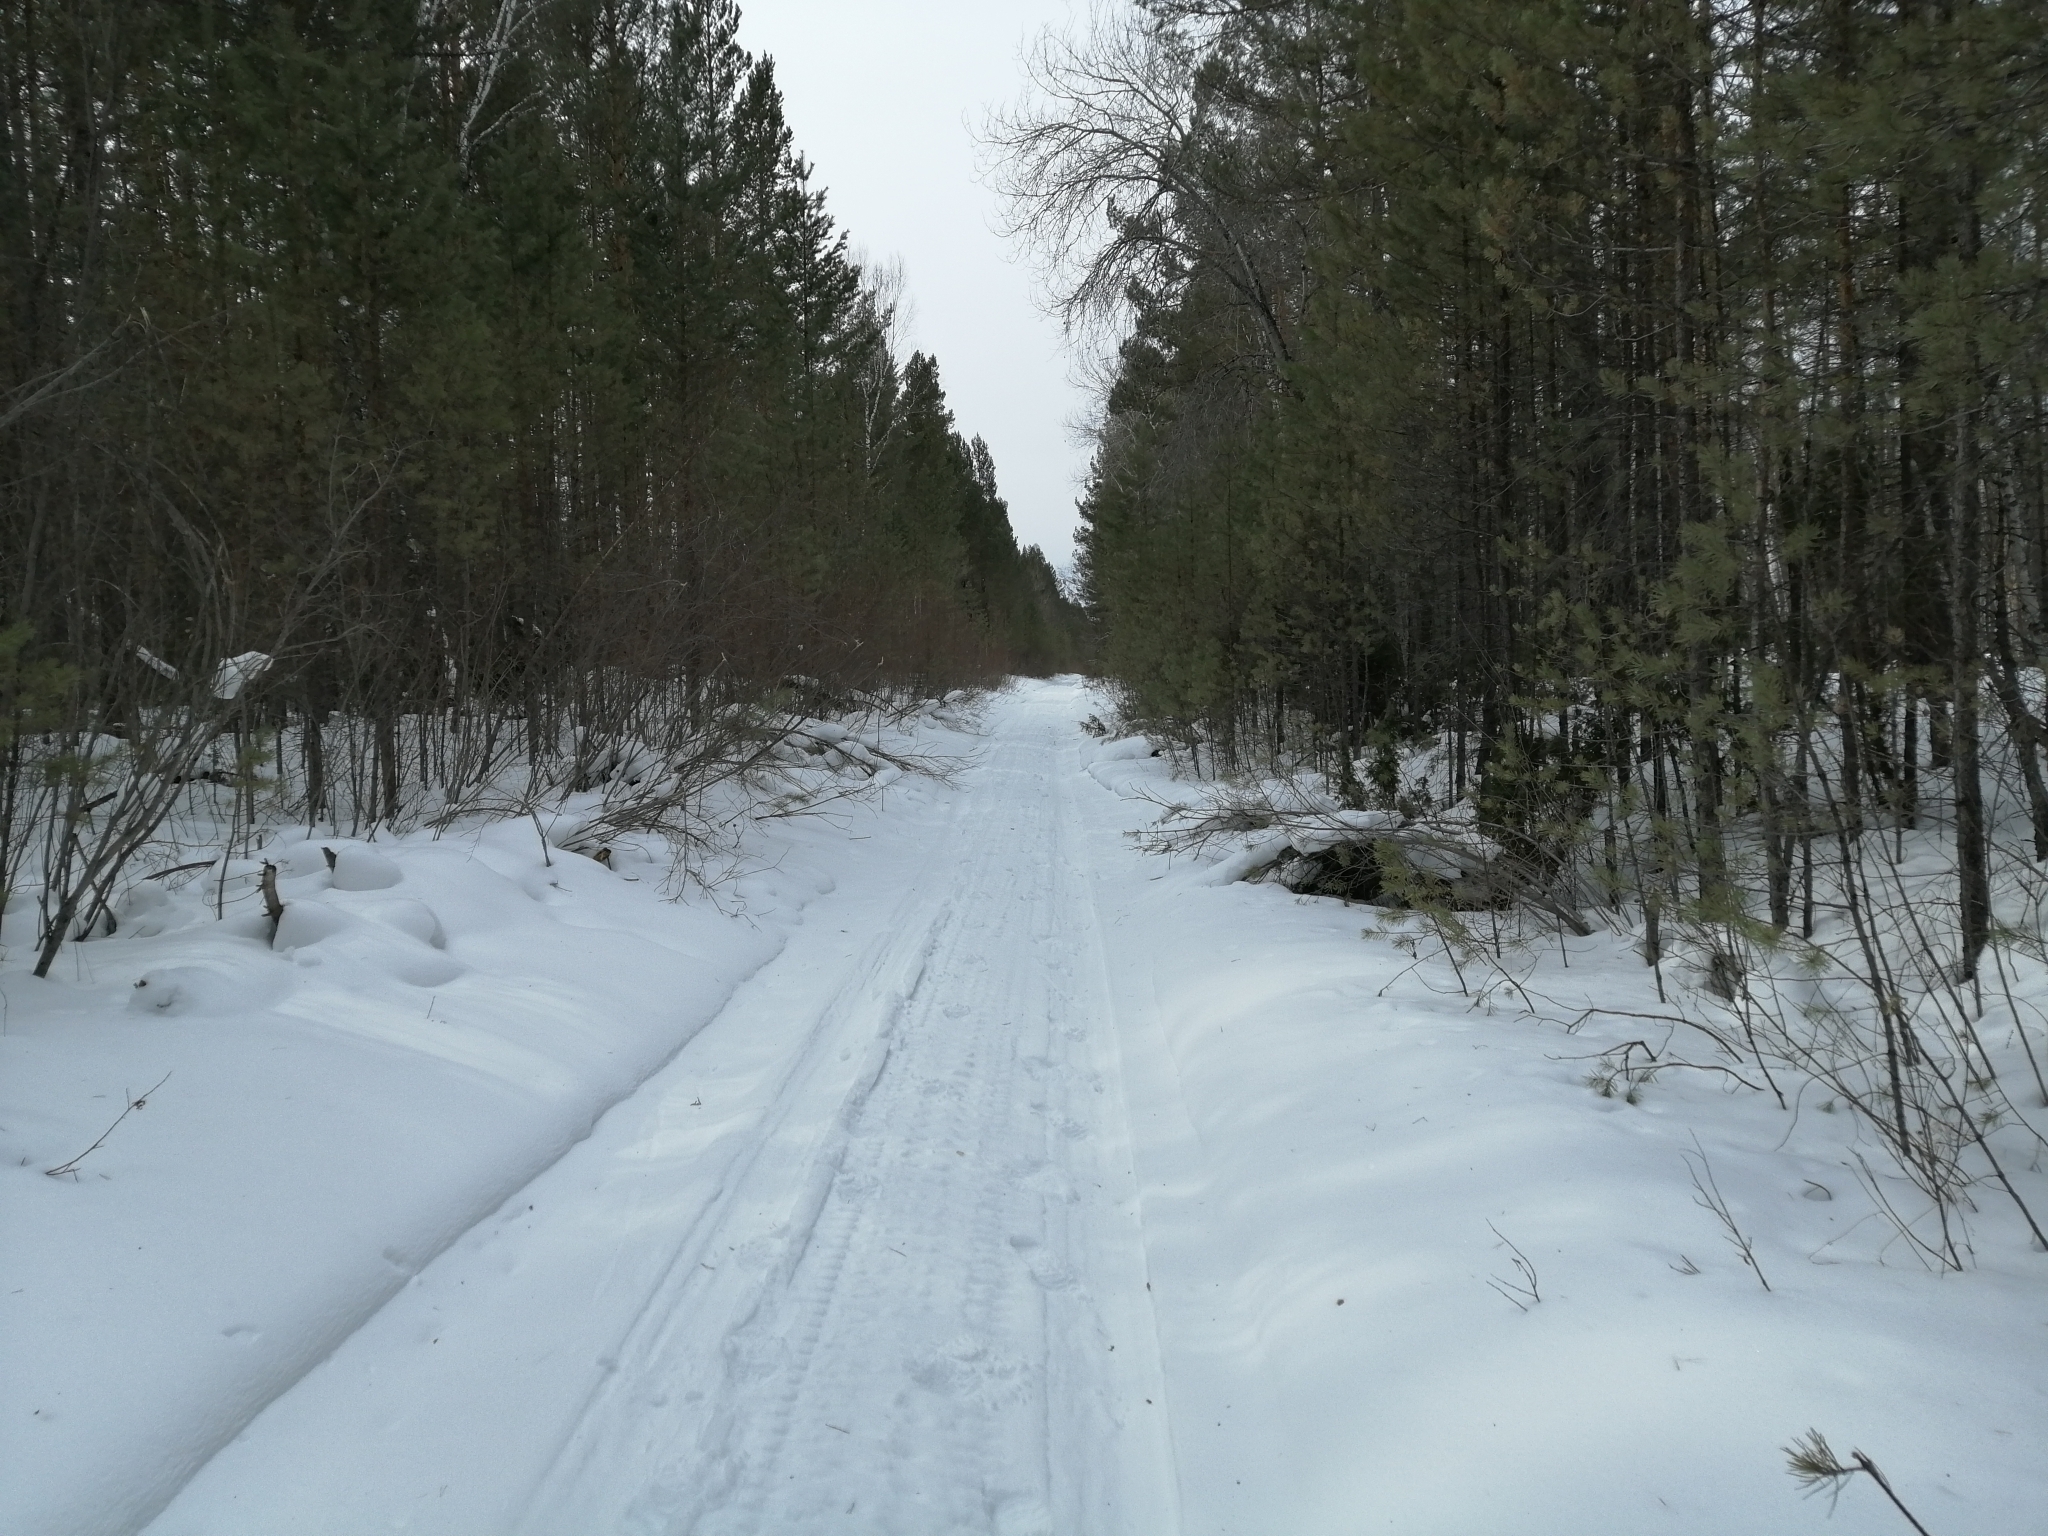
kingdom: Plantae
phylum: Tracheophyta
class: Pinopsida
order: Pinales
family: Pinaceae
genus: Pinus
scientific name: Pinus sylvestris
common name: Scots pine
